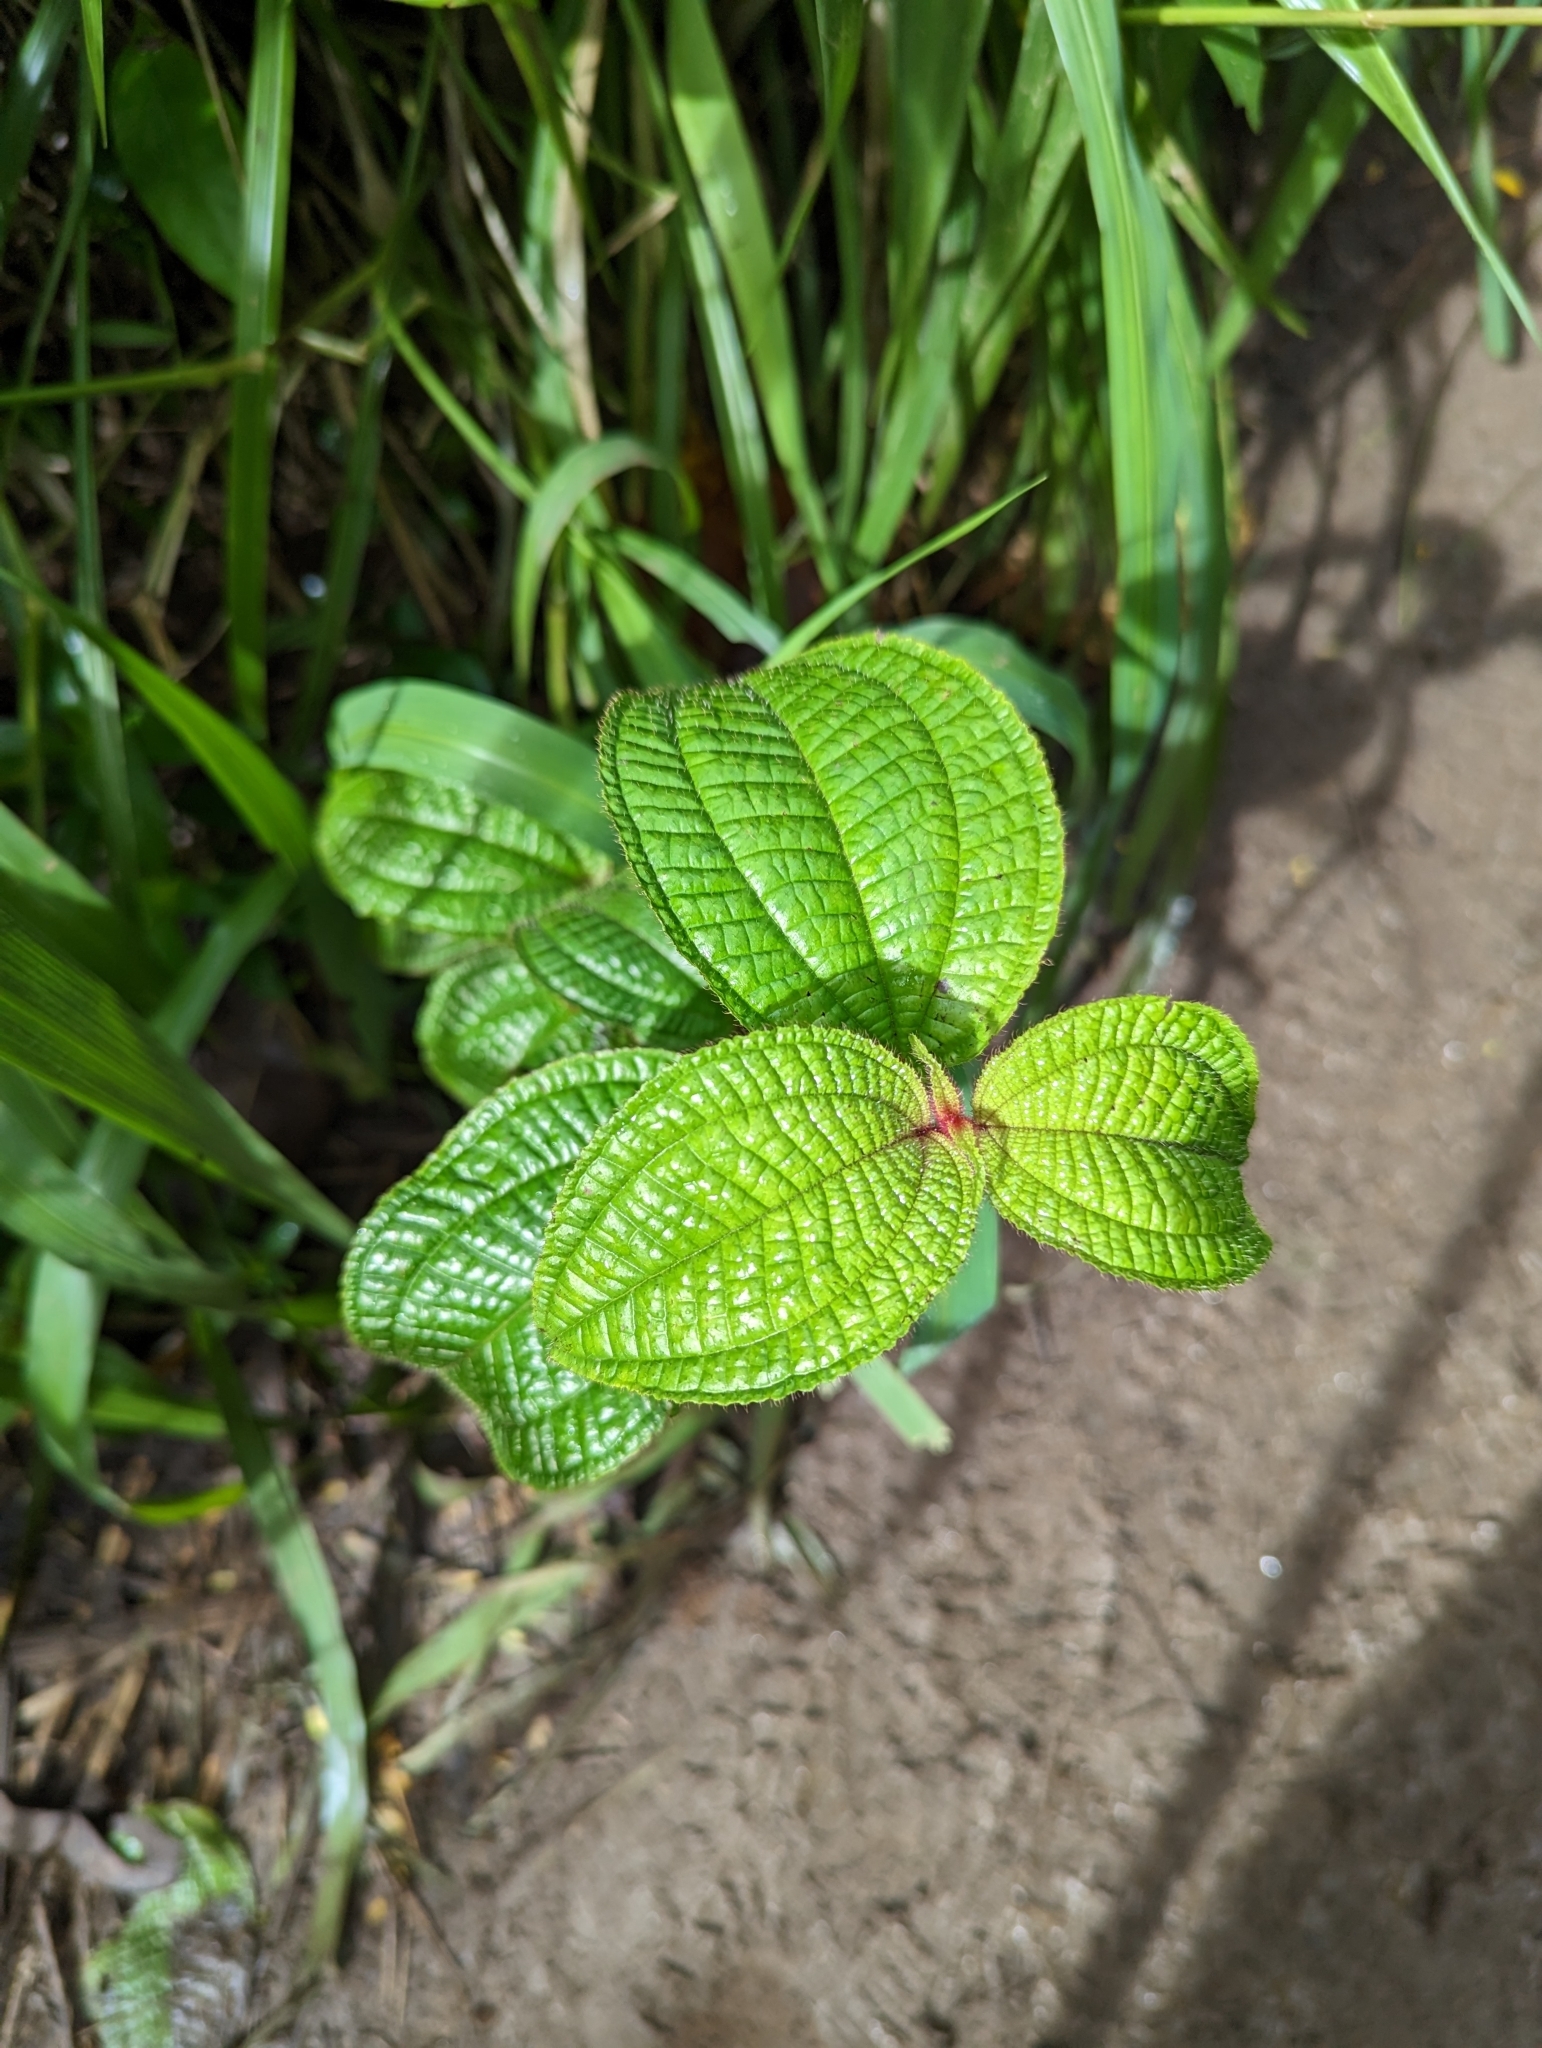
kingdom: Plantae
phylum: Tracheophyta
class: Magnoliopsida
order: Myrtales
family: Melastomataceae
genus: Miconia
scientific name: Miconia crenata
